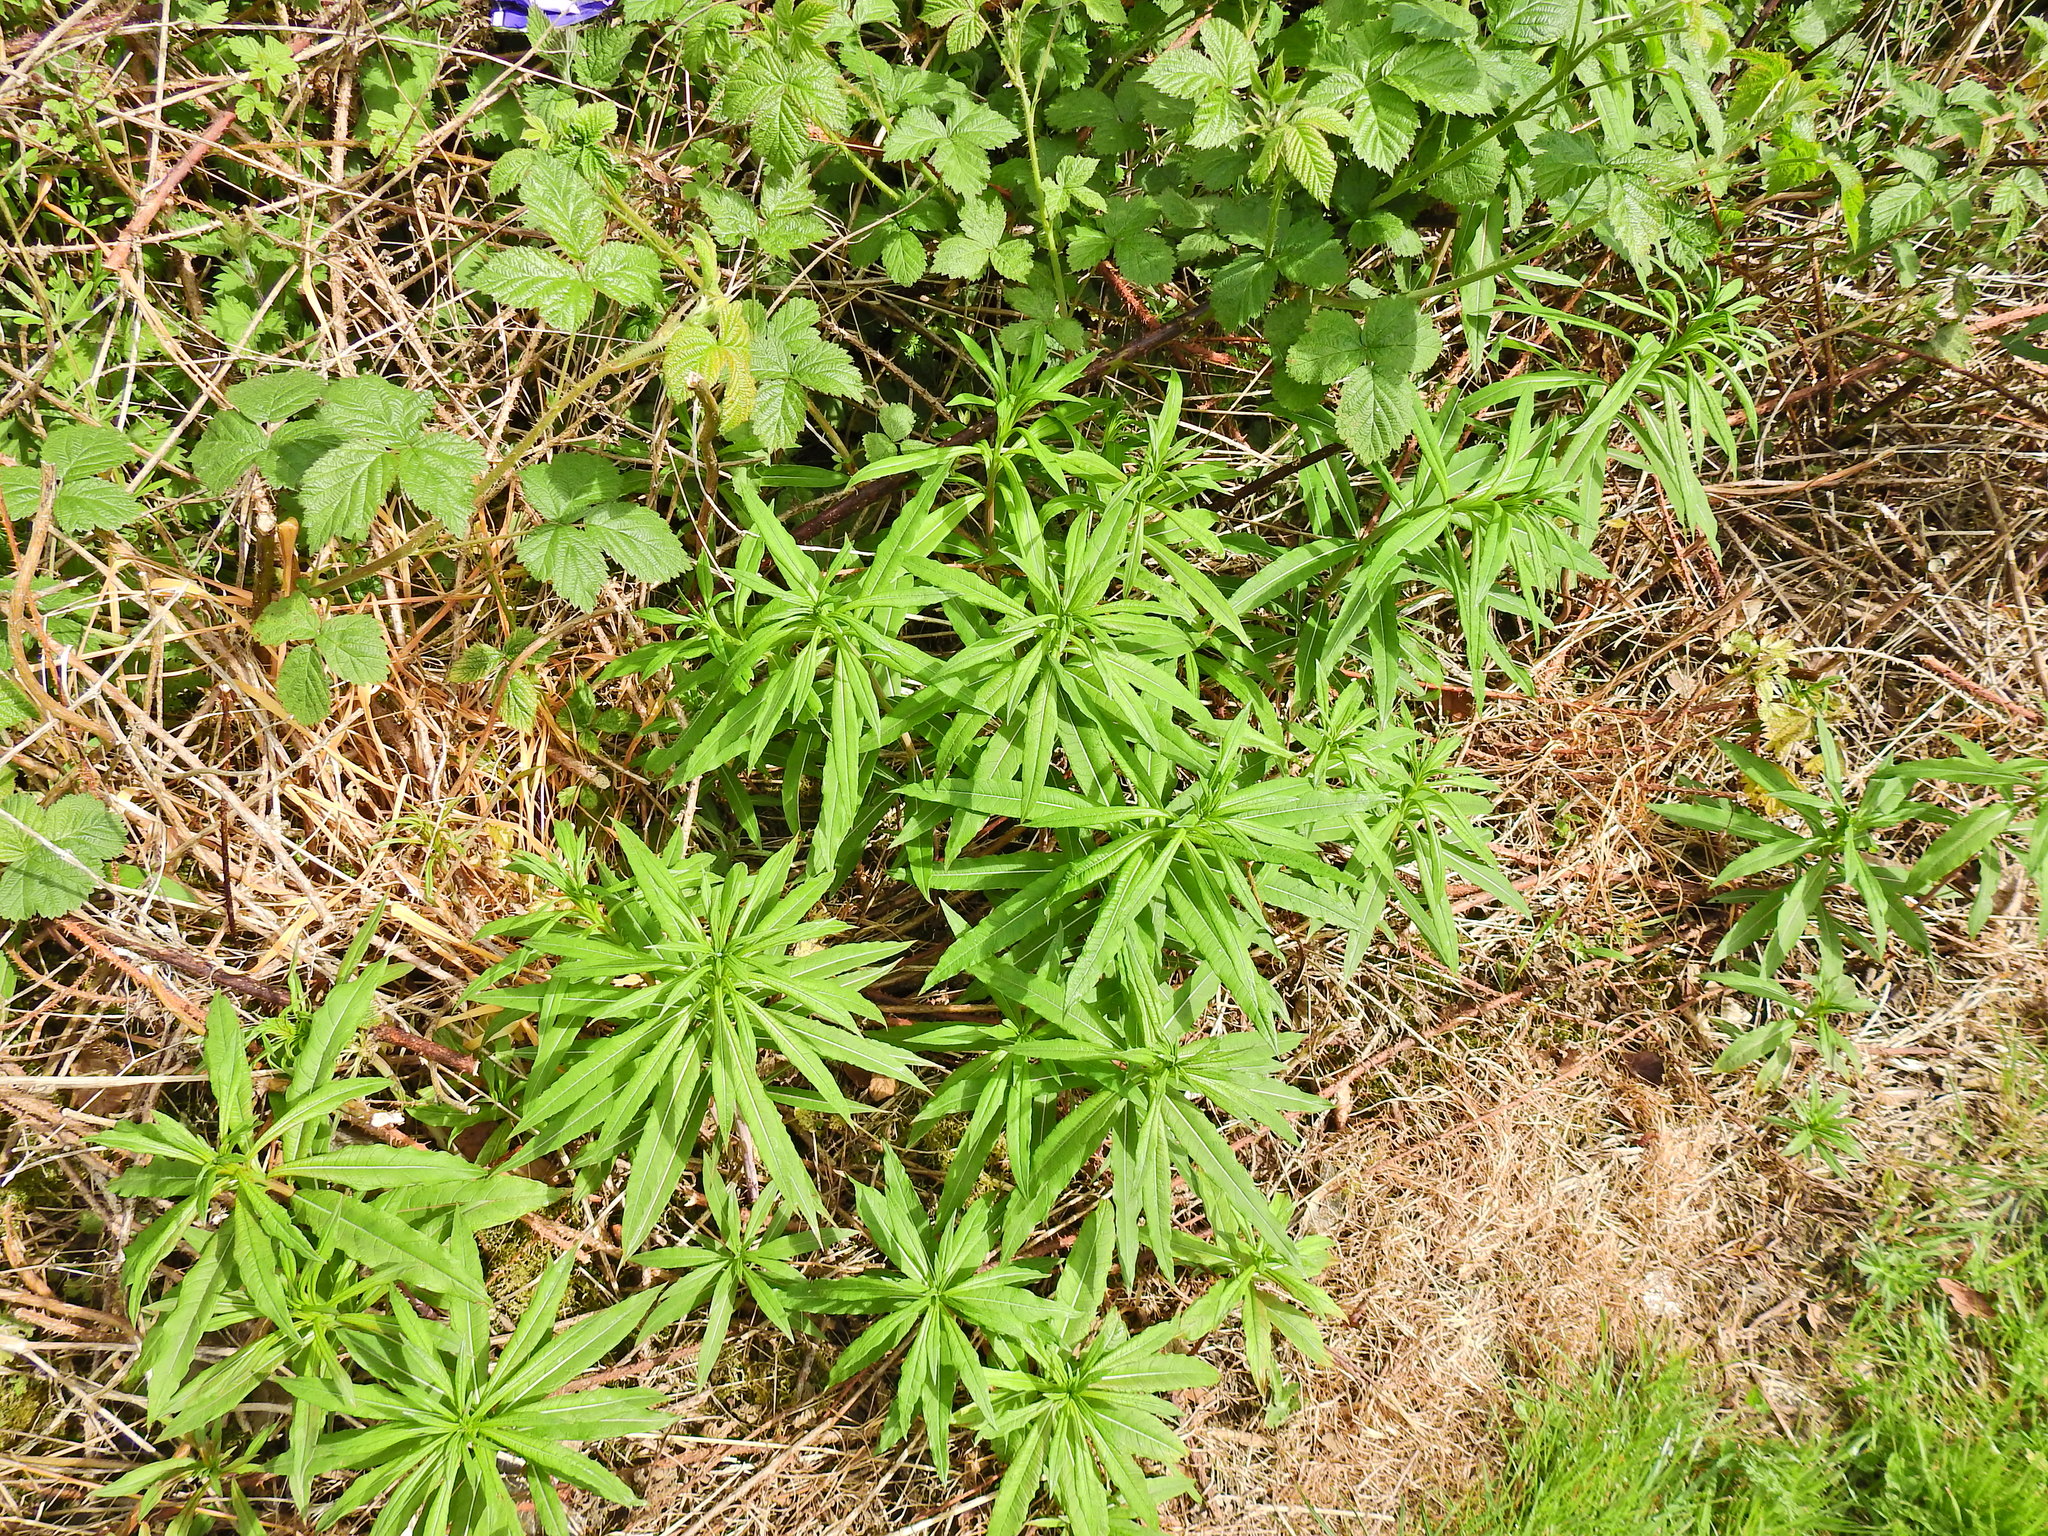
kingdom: Plantae
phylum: Tracheophyta
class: Magnoliopsida
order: Myrtales
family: Onagraceae
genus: Chamaenerion
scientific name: Chamaenerion angustifolium
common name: Fireweed
